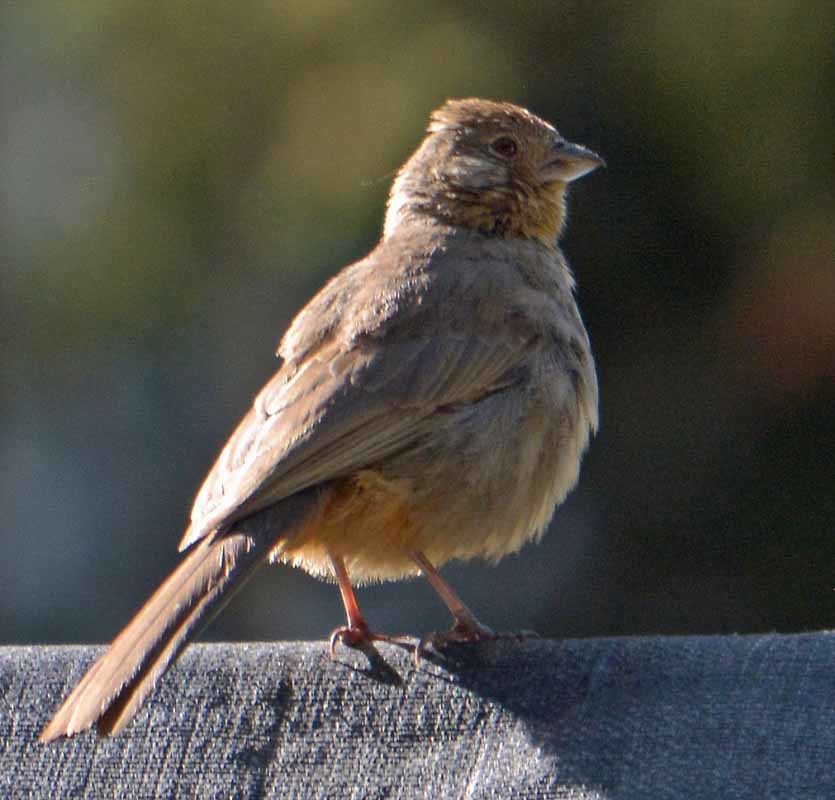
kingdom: Animalia
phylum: Chordata
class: Aves
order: Passeriformes
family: Passerellidae
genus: Melozone
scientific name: Melozone fusca
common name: Canyon towhee
